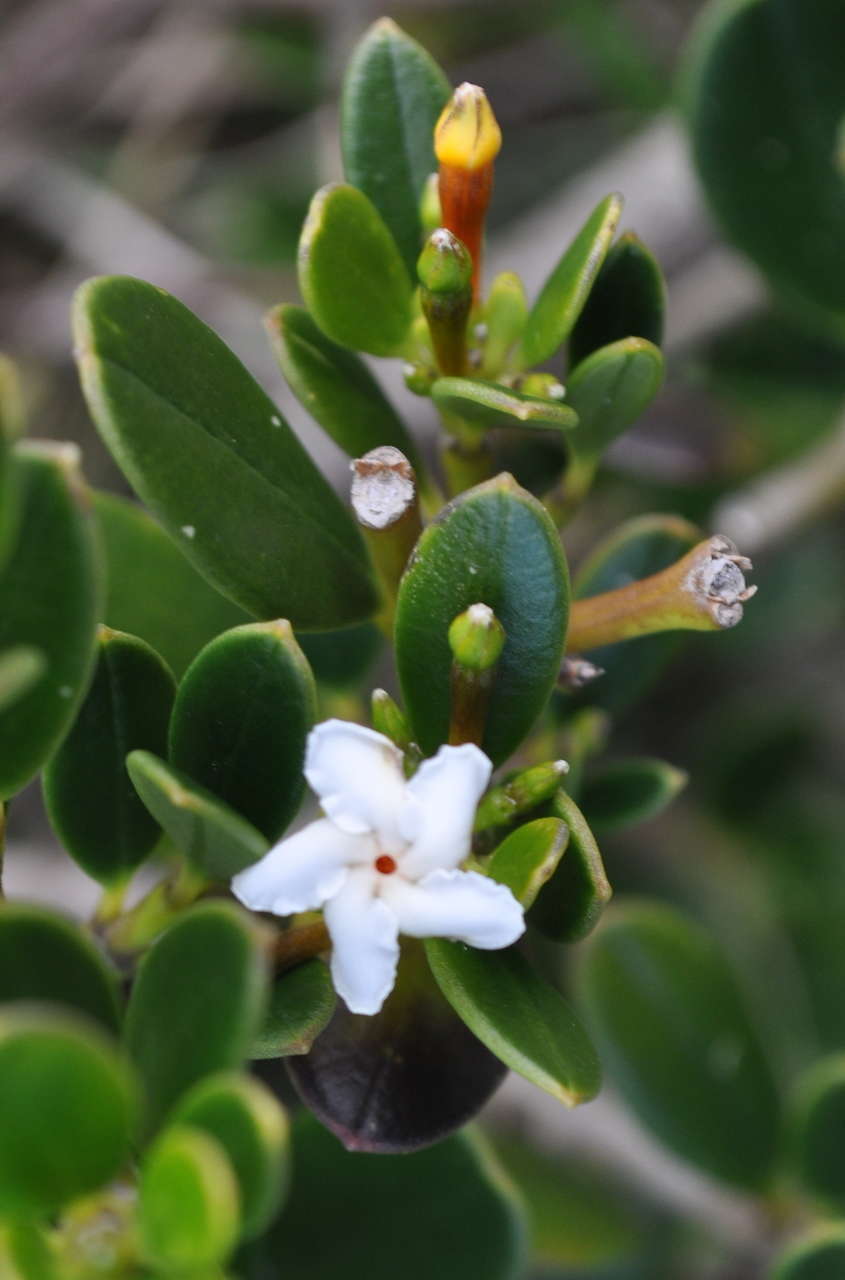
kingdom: Plantae
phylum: Tracheophyta
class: Magnoliopsida
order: Gentianales
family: Apocynaceae
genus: Alyxia
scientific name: Alyxia buxifolia
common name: Dysentery-bush
